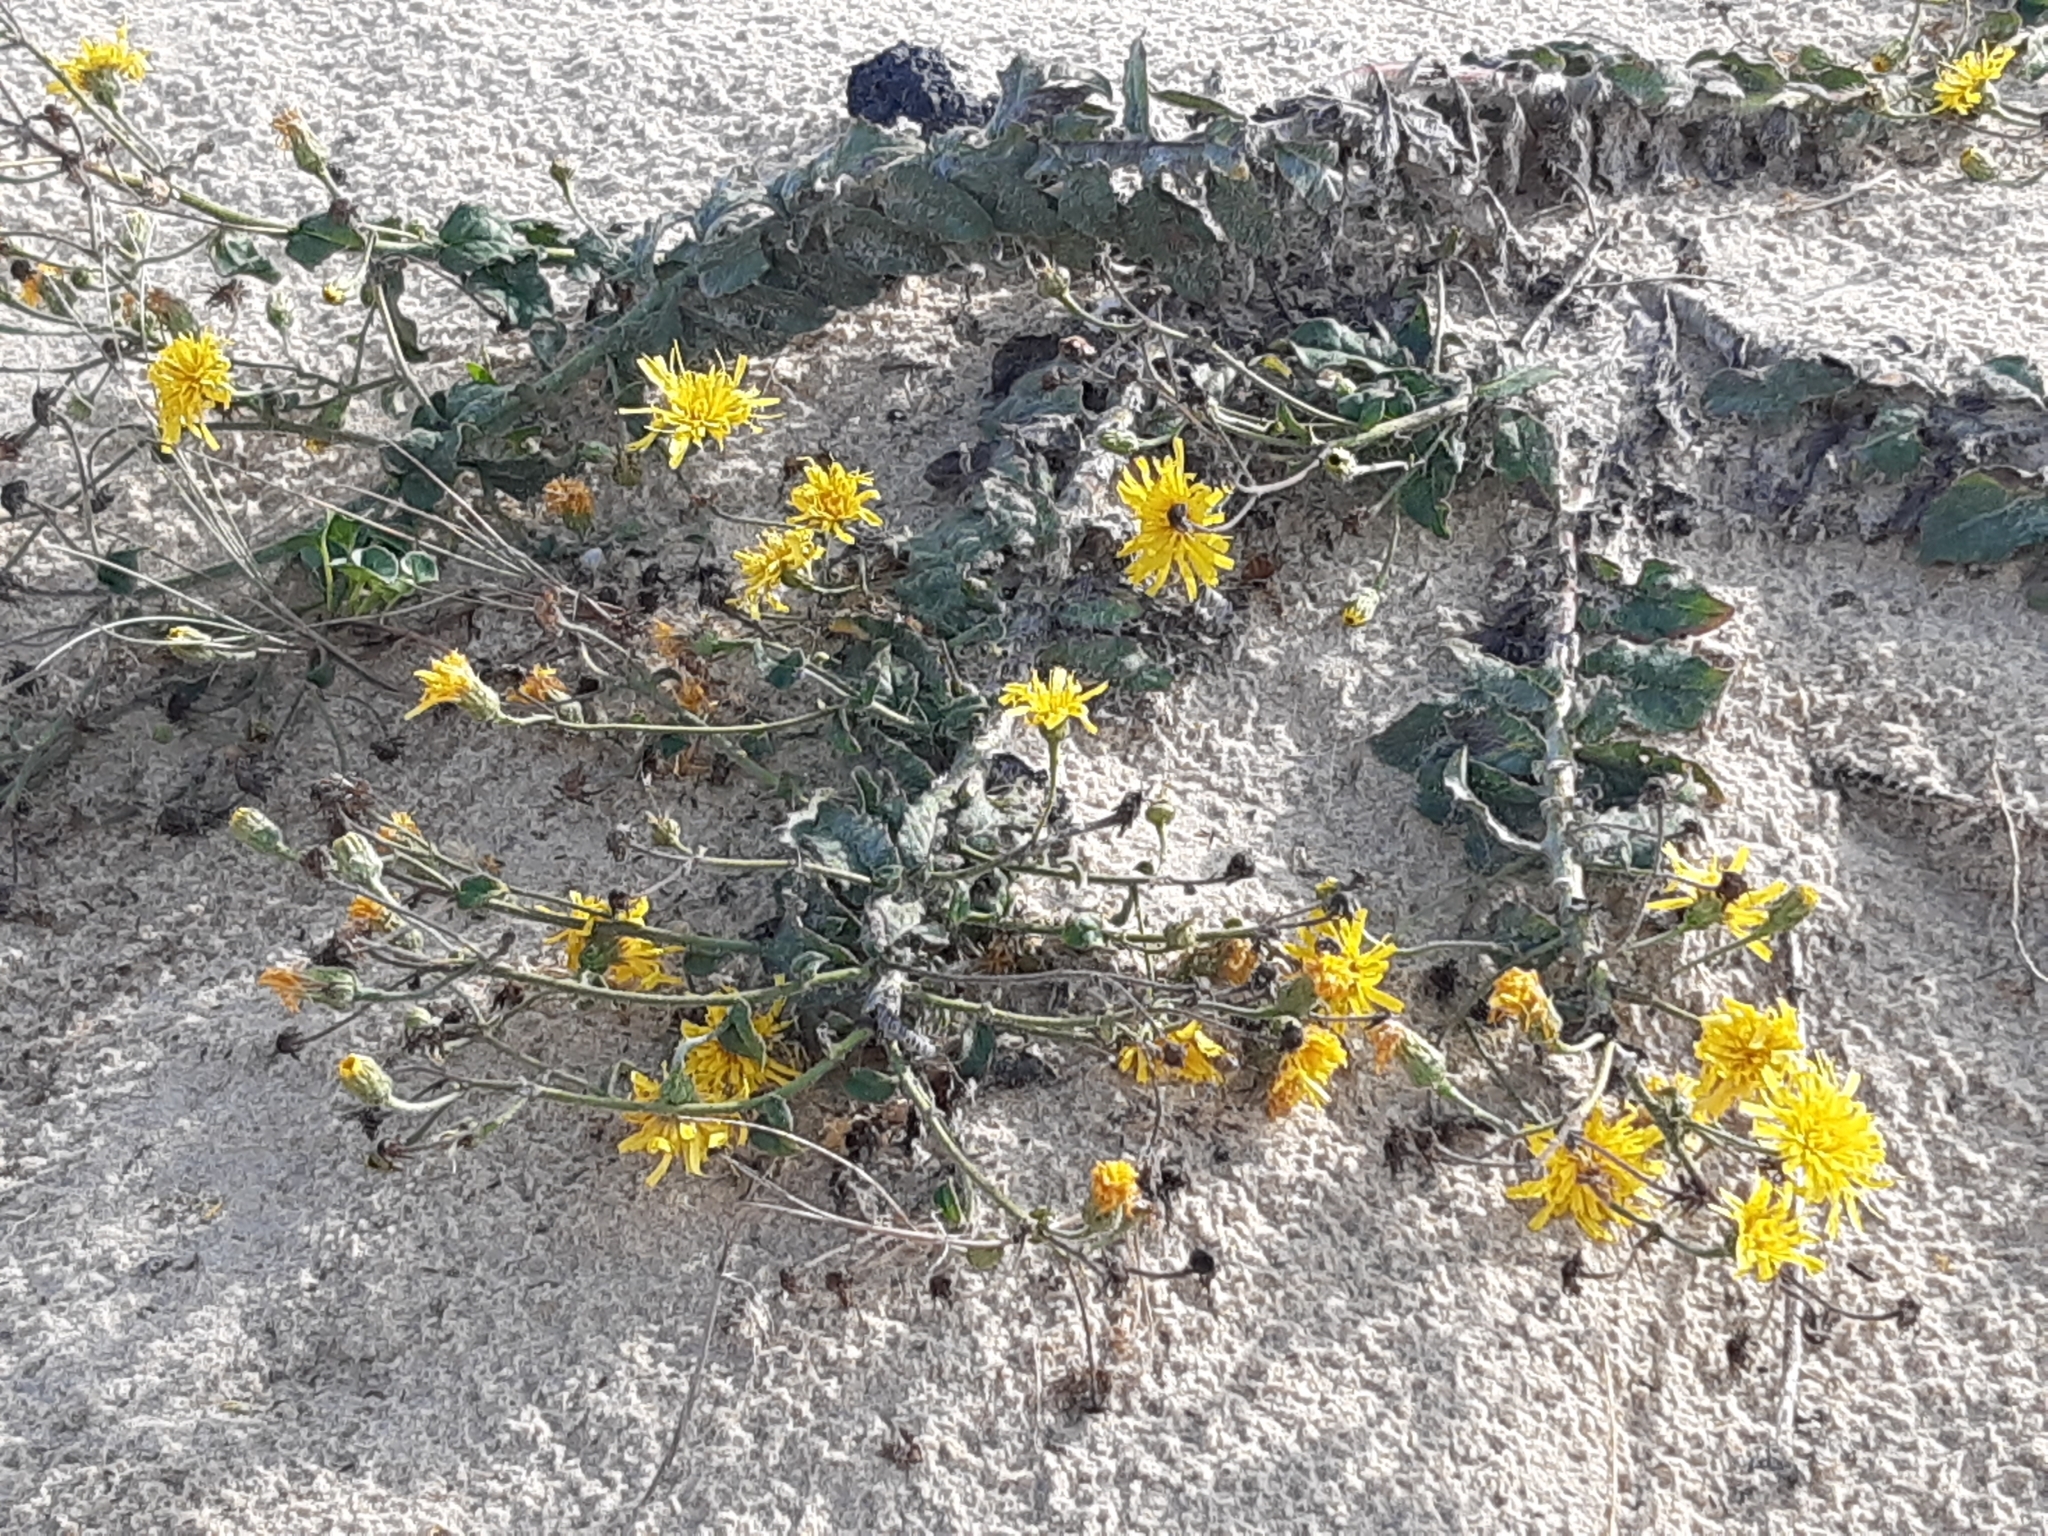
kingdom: Plantae
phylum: Tracheophyta
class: Magnoliopsida
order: Asterales
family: Asteraceae
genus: Hieracium
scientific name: Hieracium eriophorum
